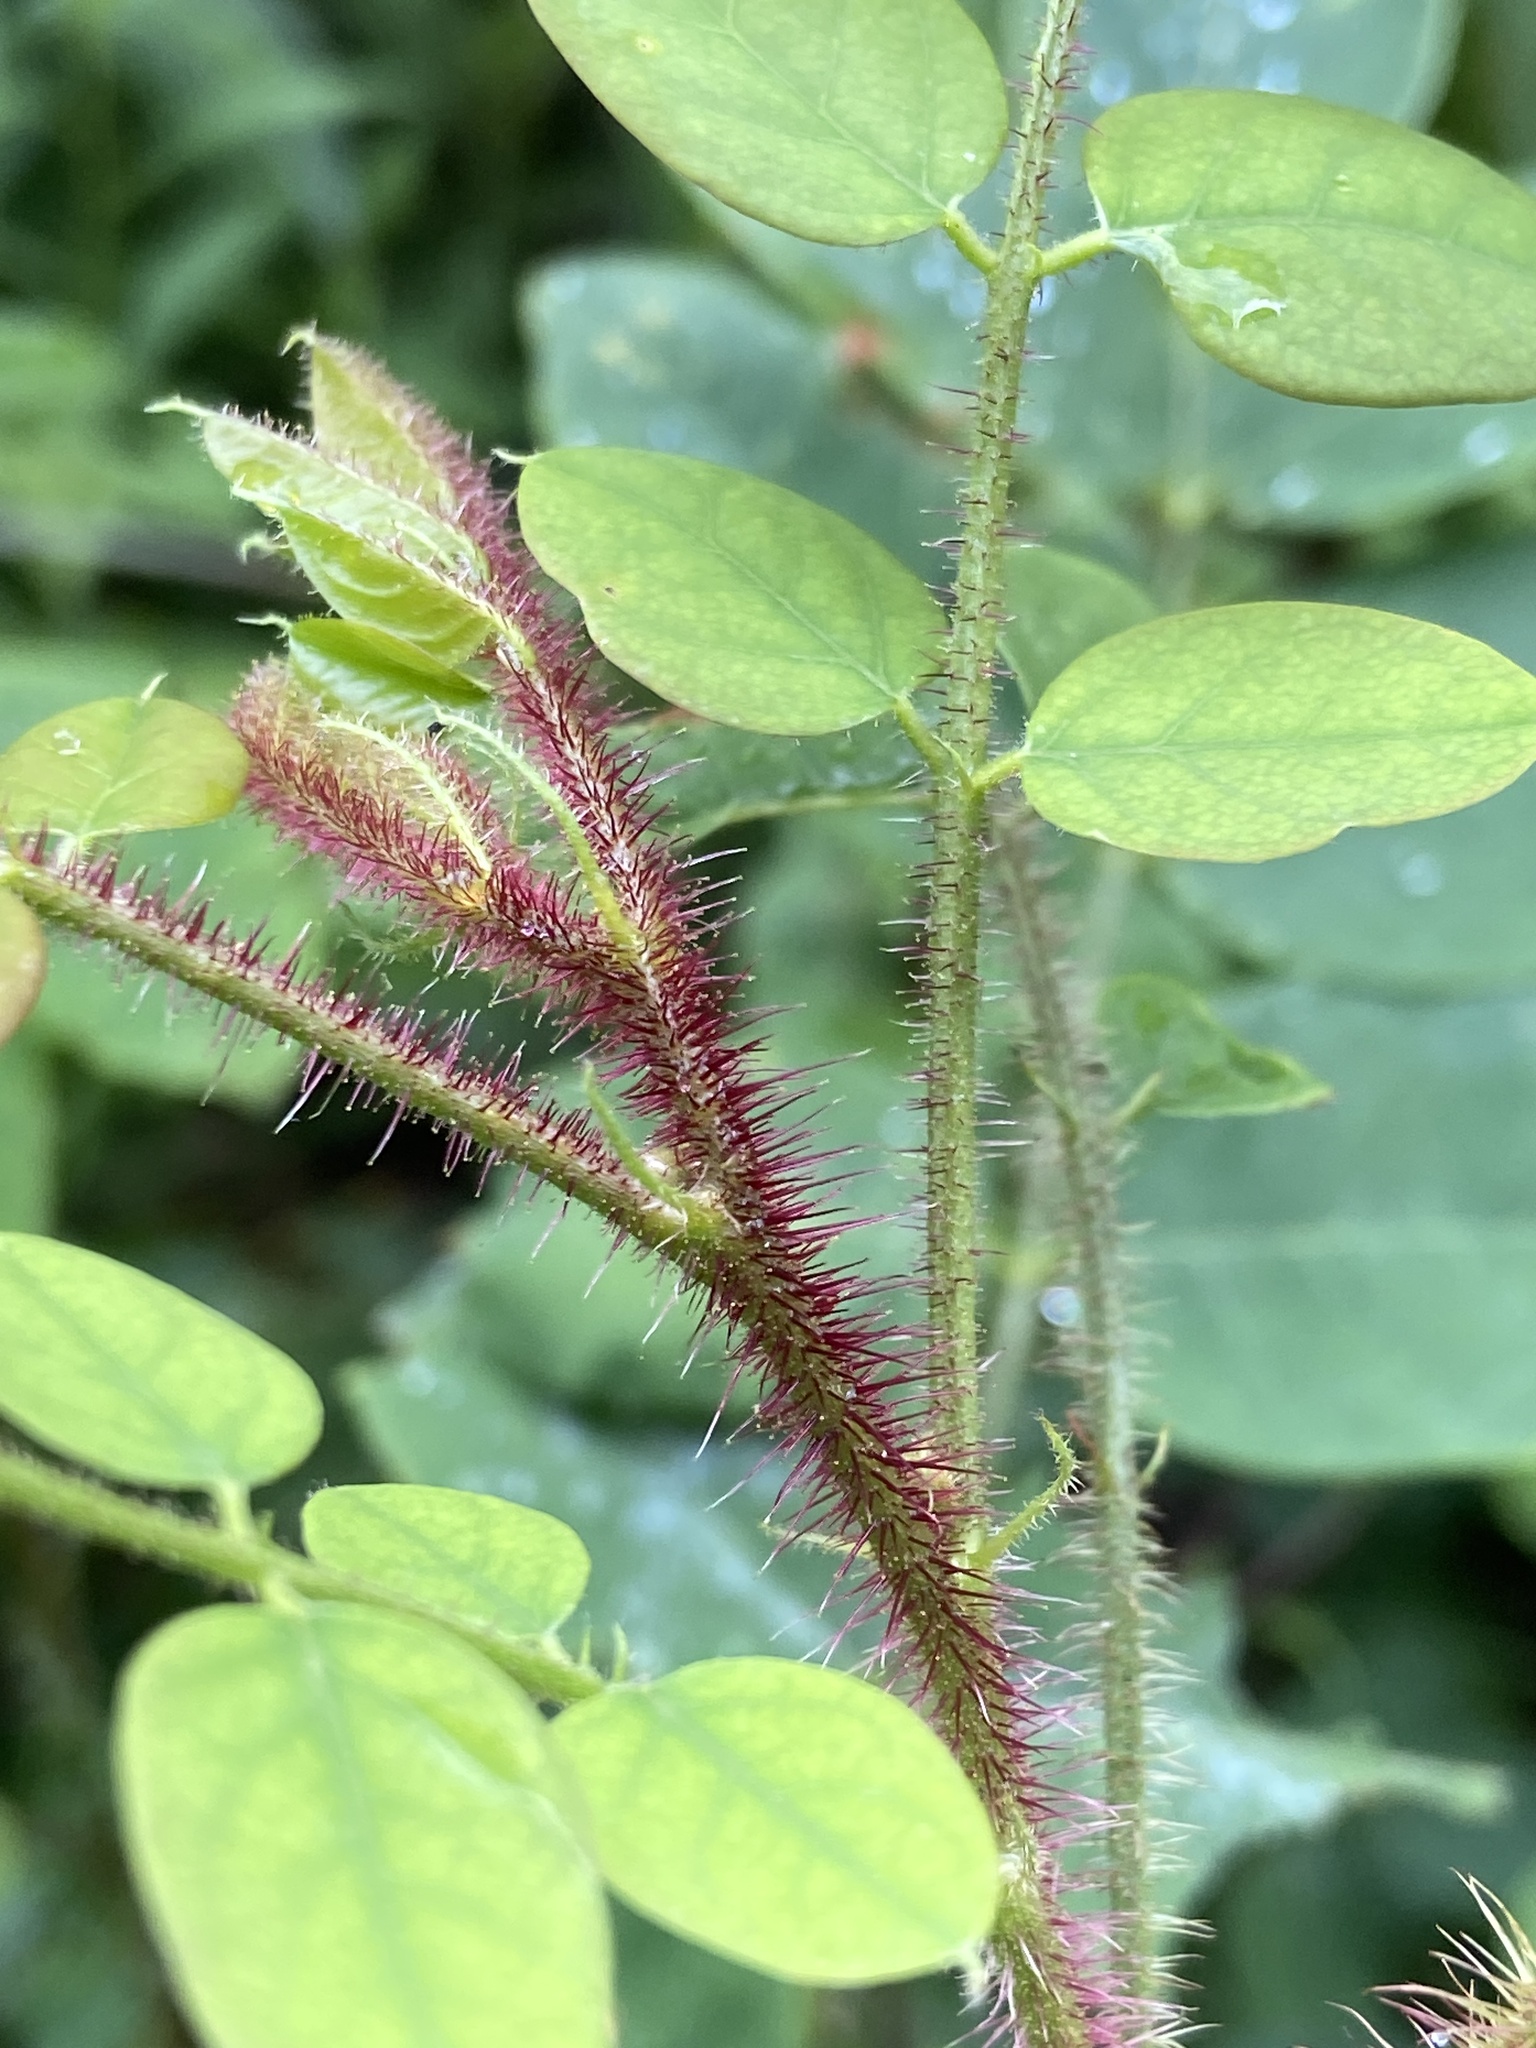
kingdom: Plantae
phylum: Tracheophyta
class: Magnoliopsida
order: Fabales
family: Fabaceae
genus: Robinia
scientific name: Robinia hispida
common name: Bristly locust
